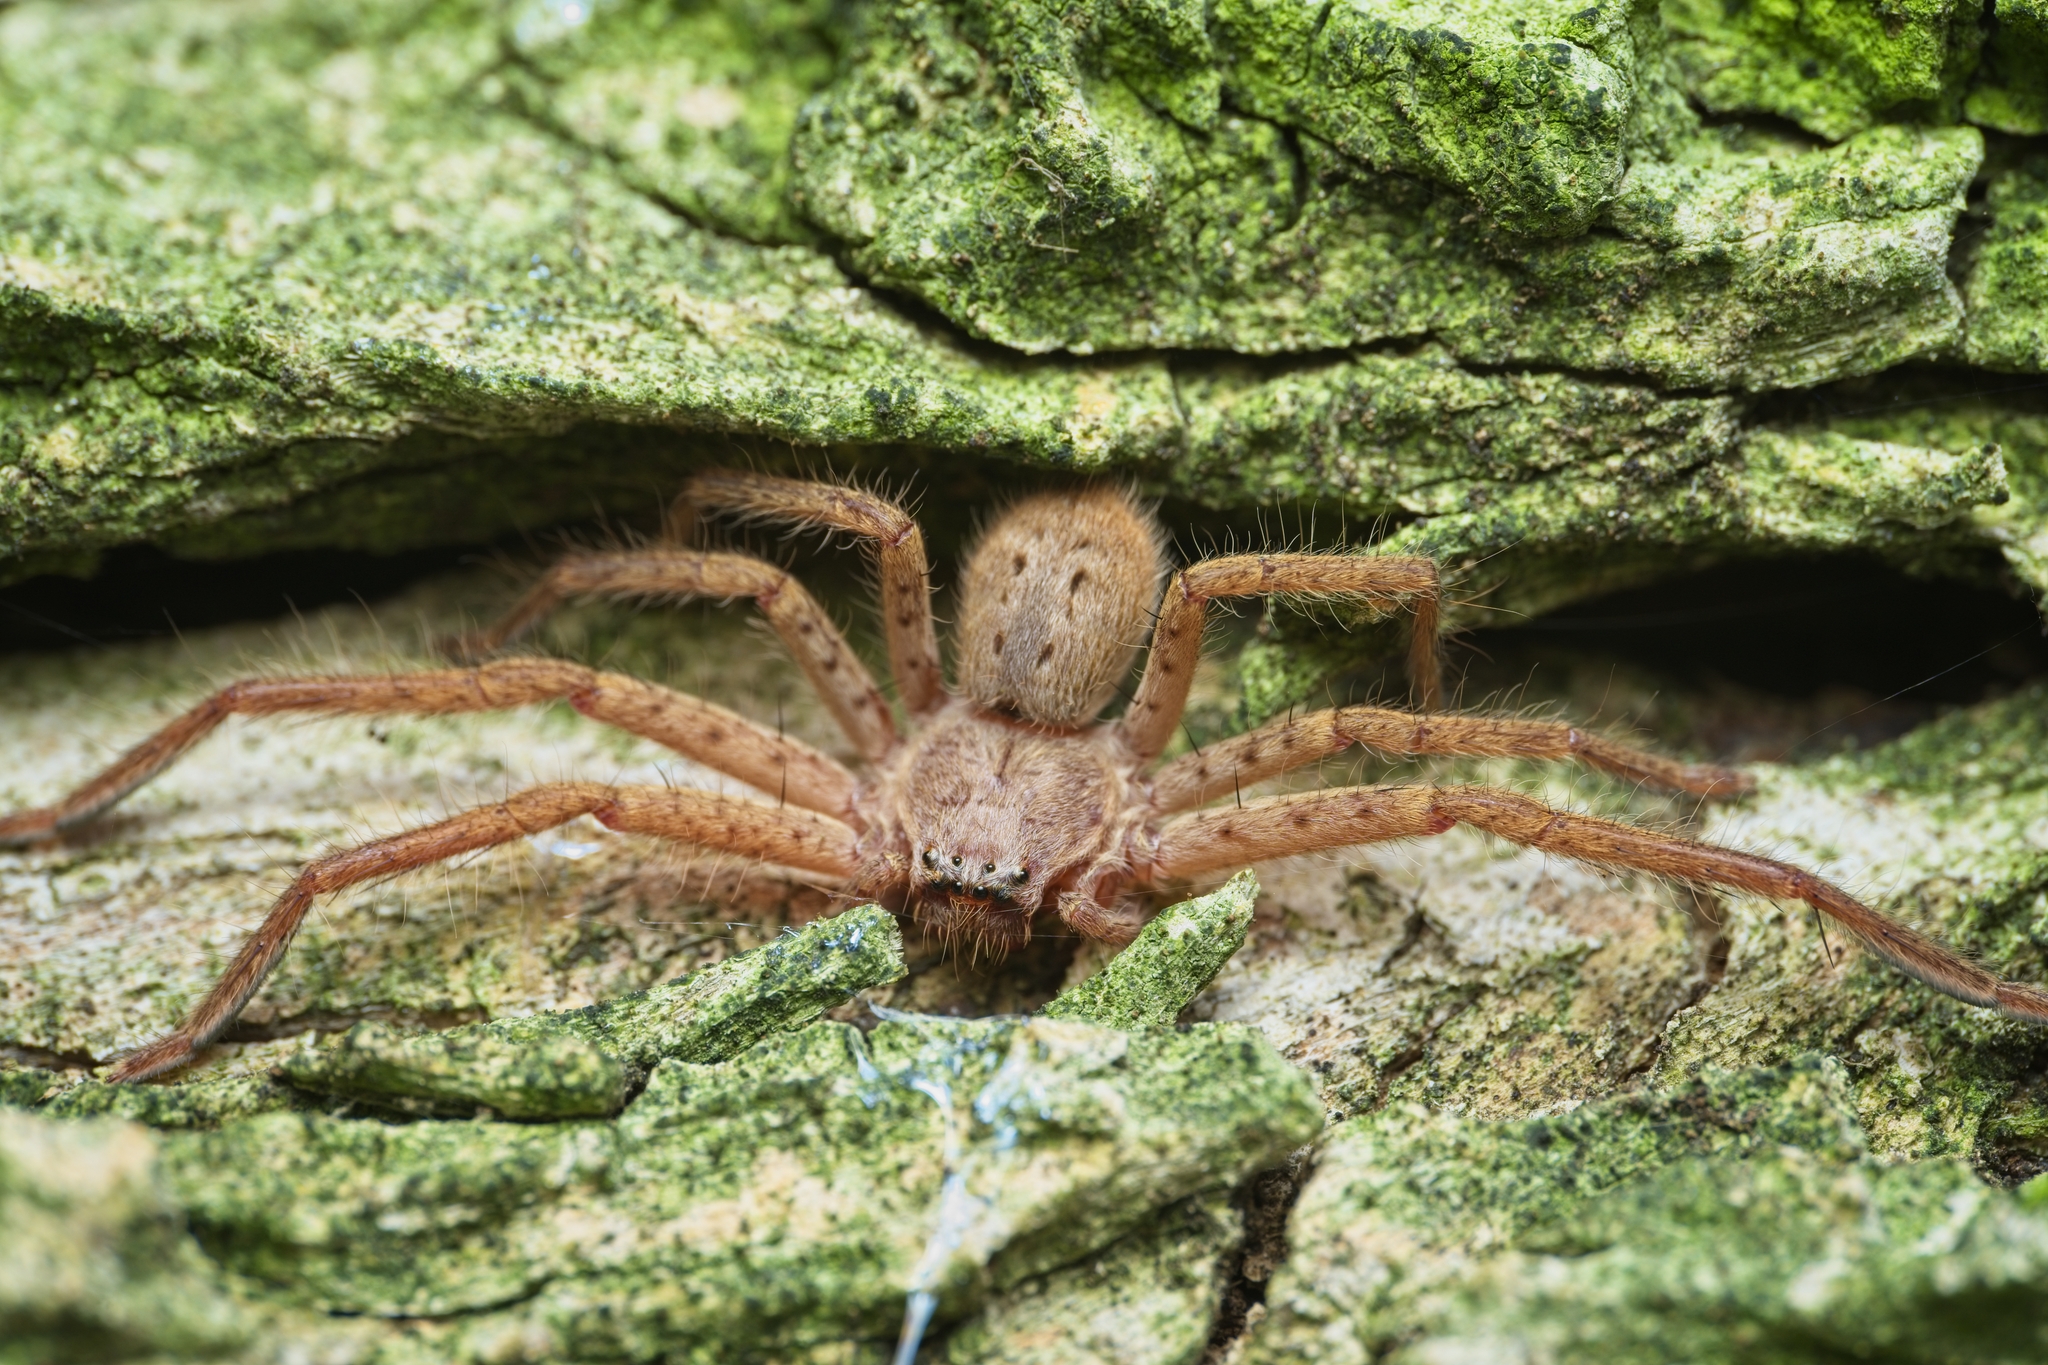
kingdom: Animalia
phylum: Arthropoda
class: Arachnida
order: Araneae
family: Sparassidae
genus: Isopeda
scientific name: Isopeda villosa
